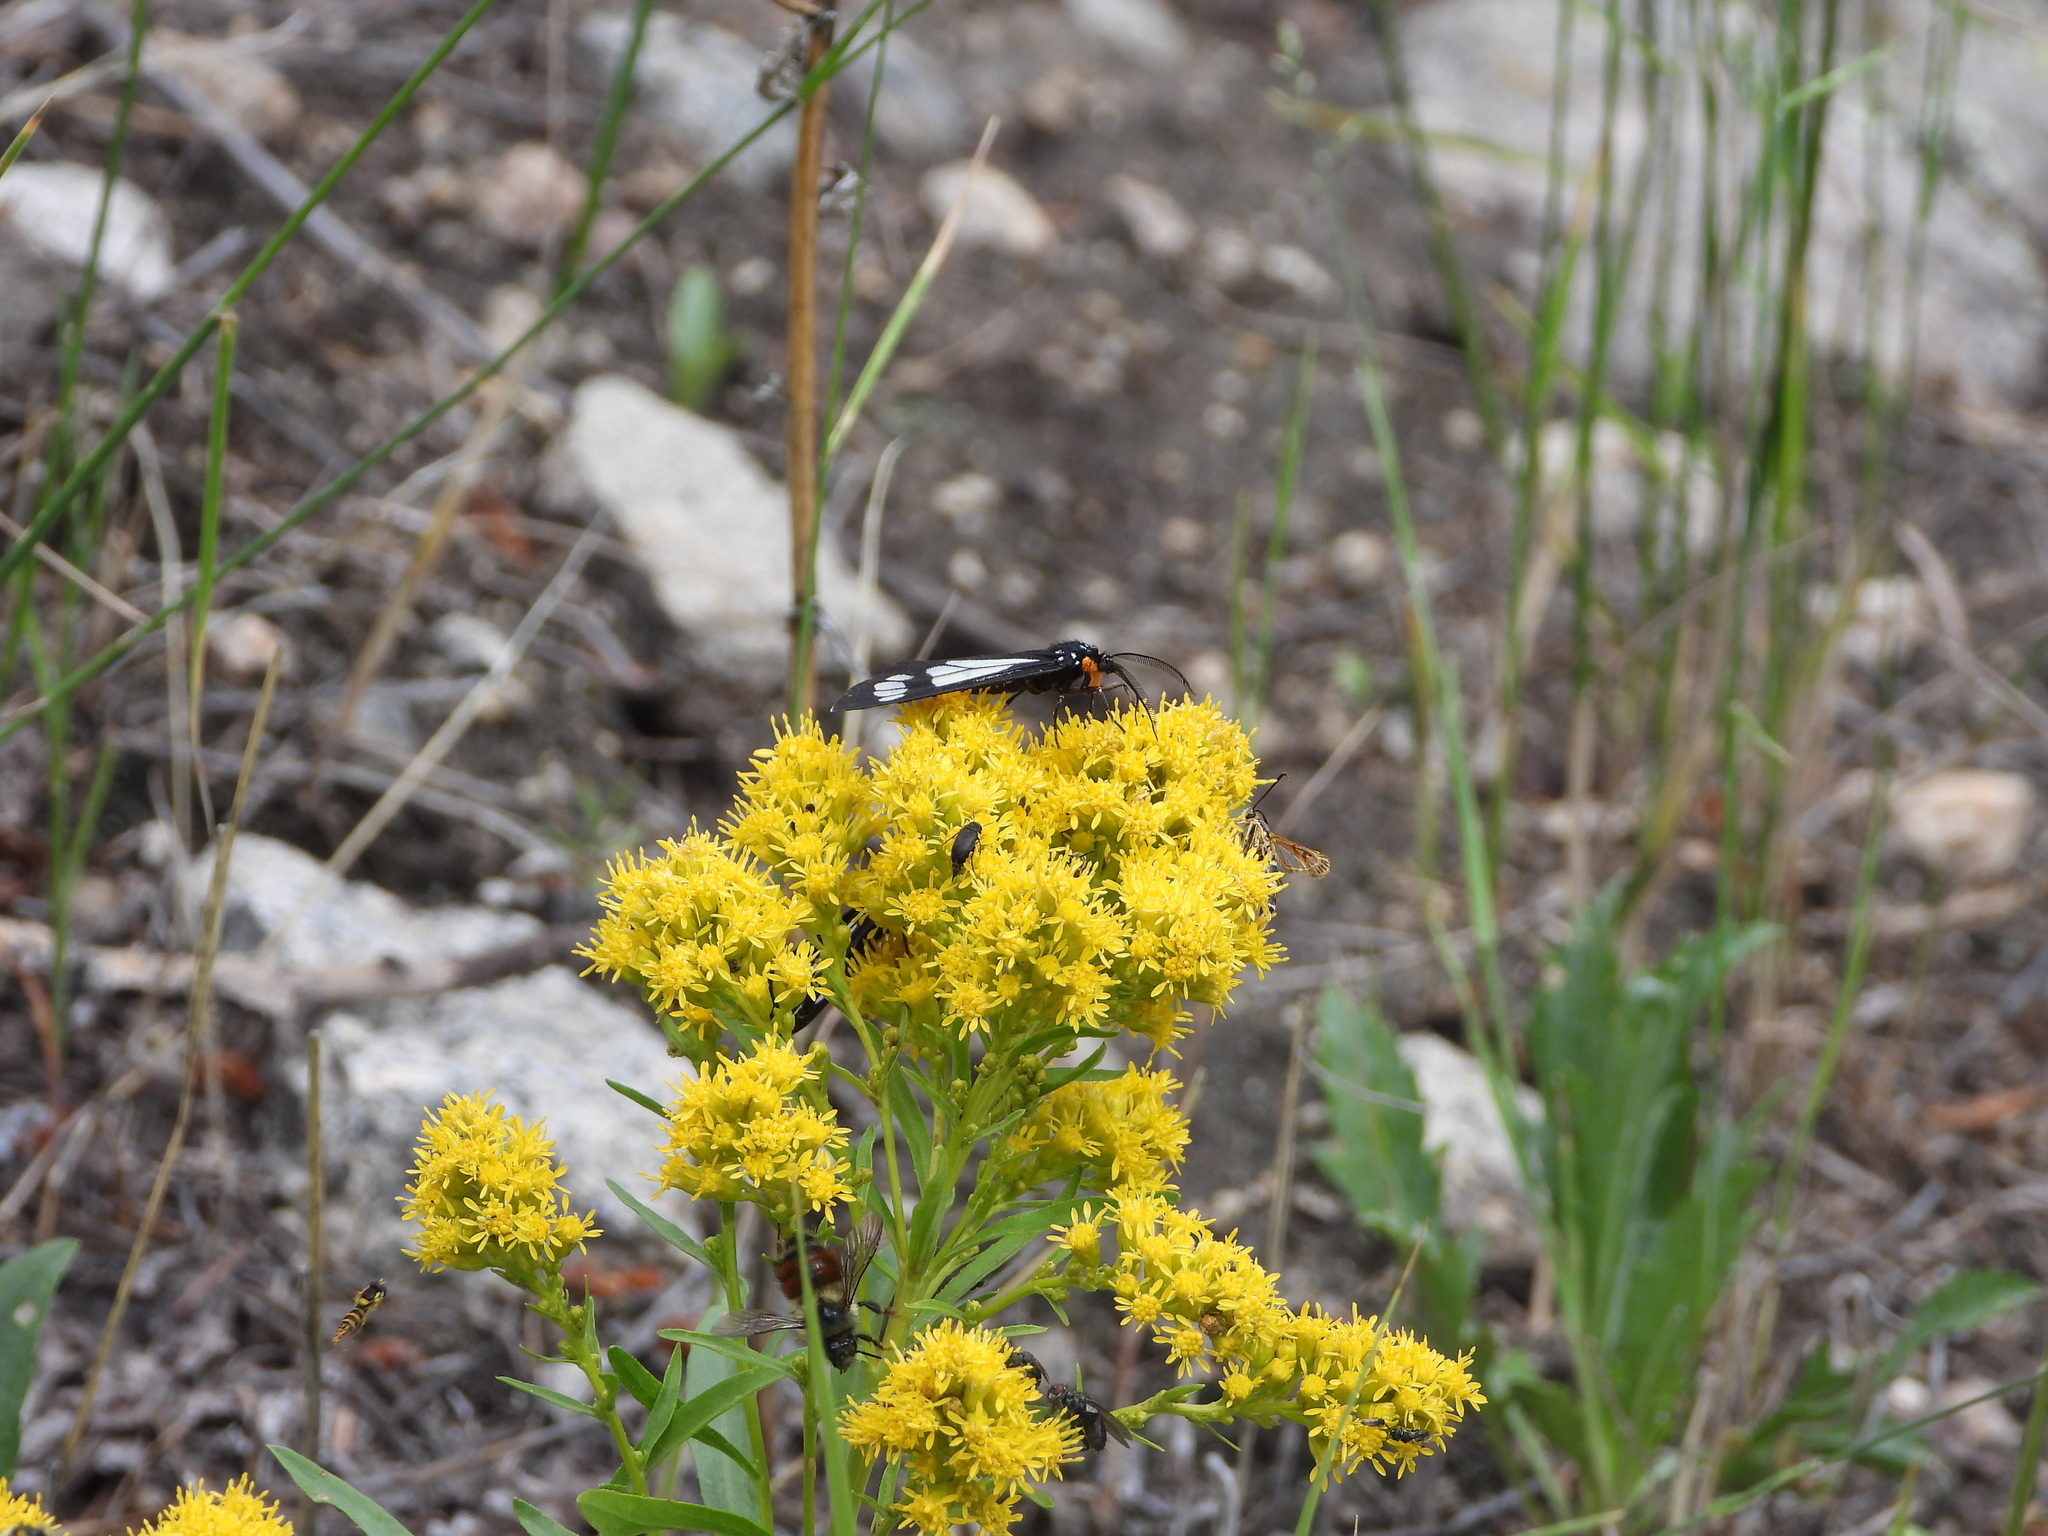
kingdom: Animalia
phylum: Arthropoda
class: Insecta
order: Lepidoptera
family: Erebidae
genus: Gnophaela
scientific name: Gnophaela vermiculata
